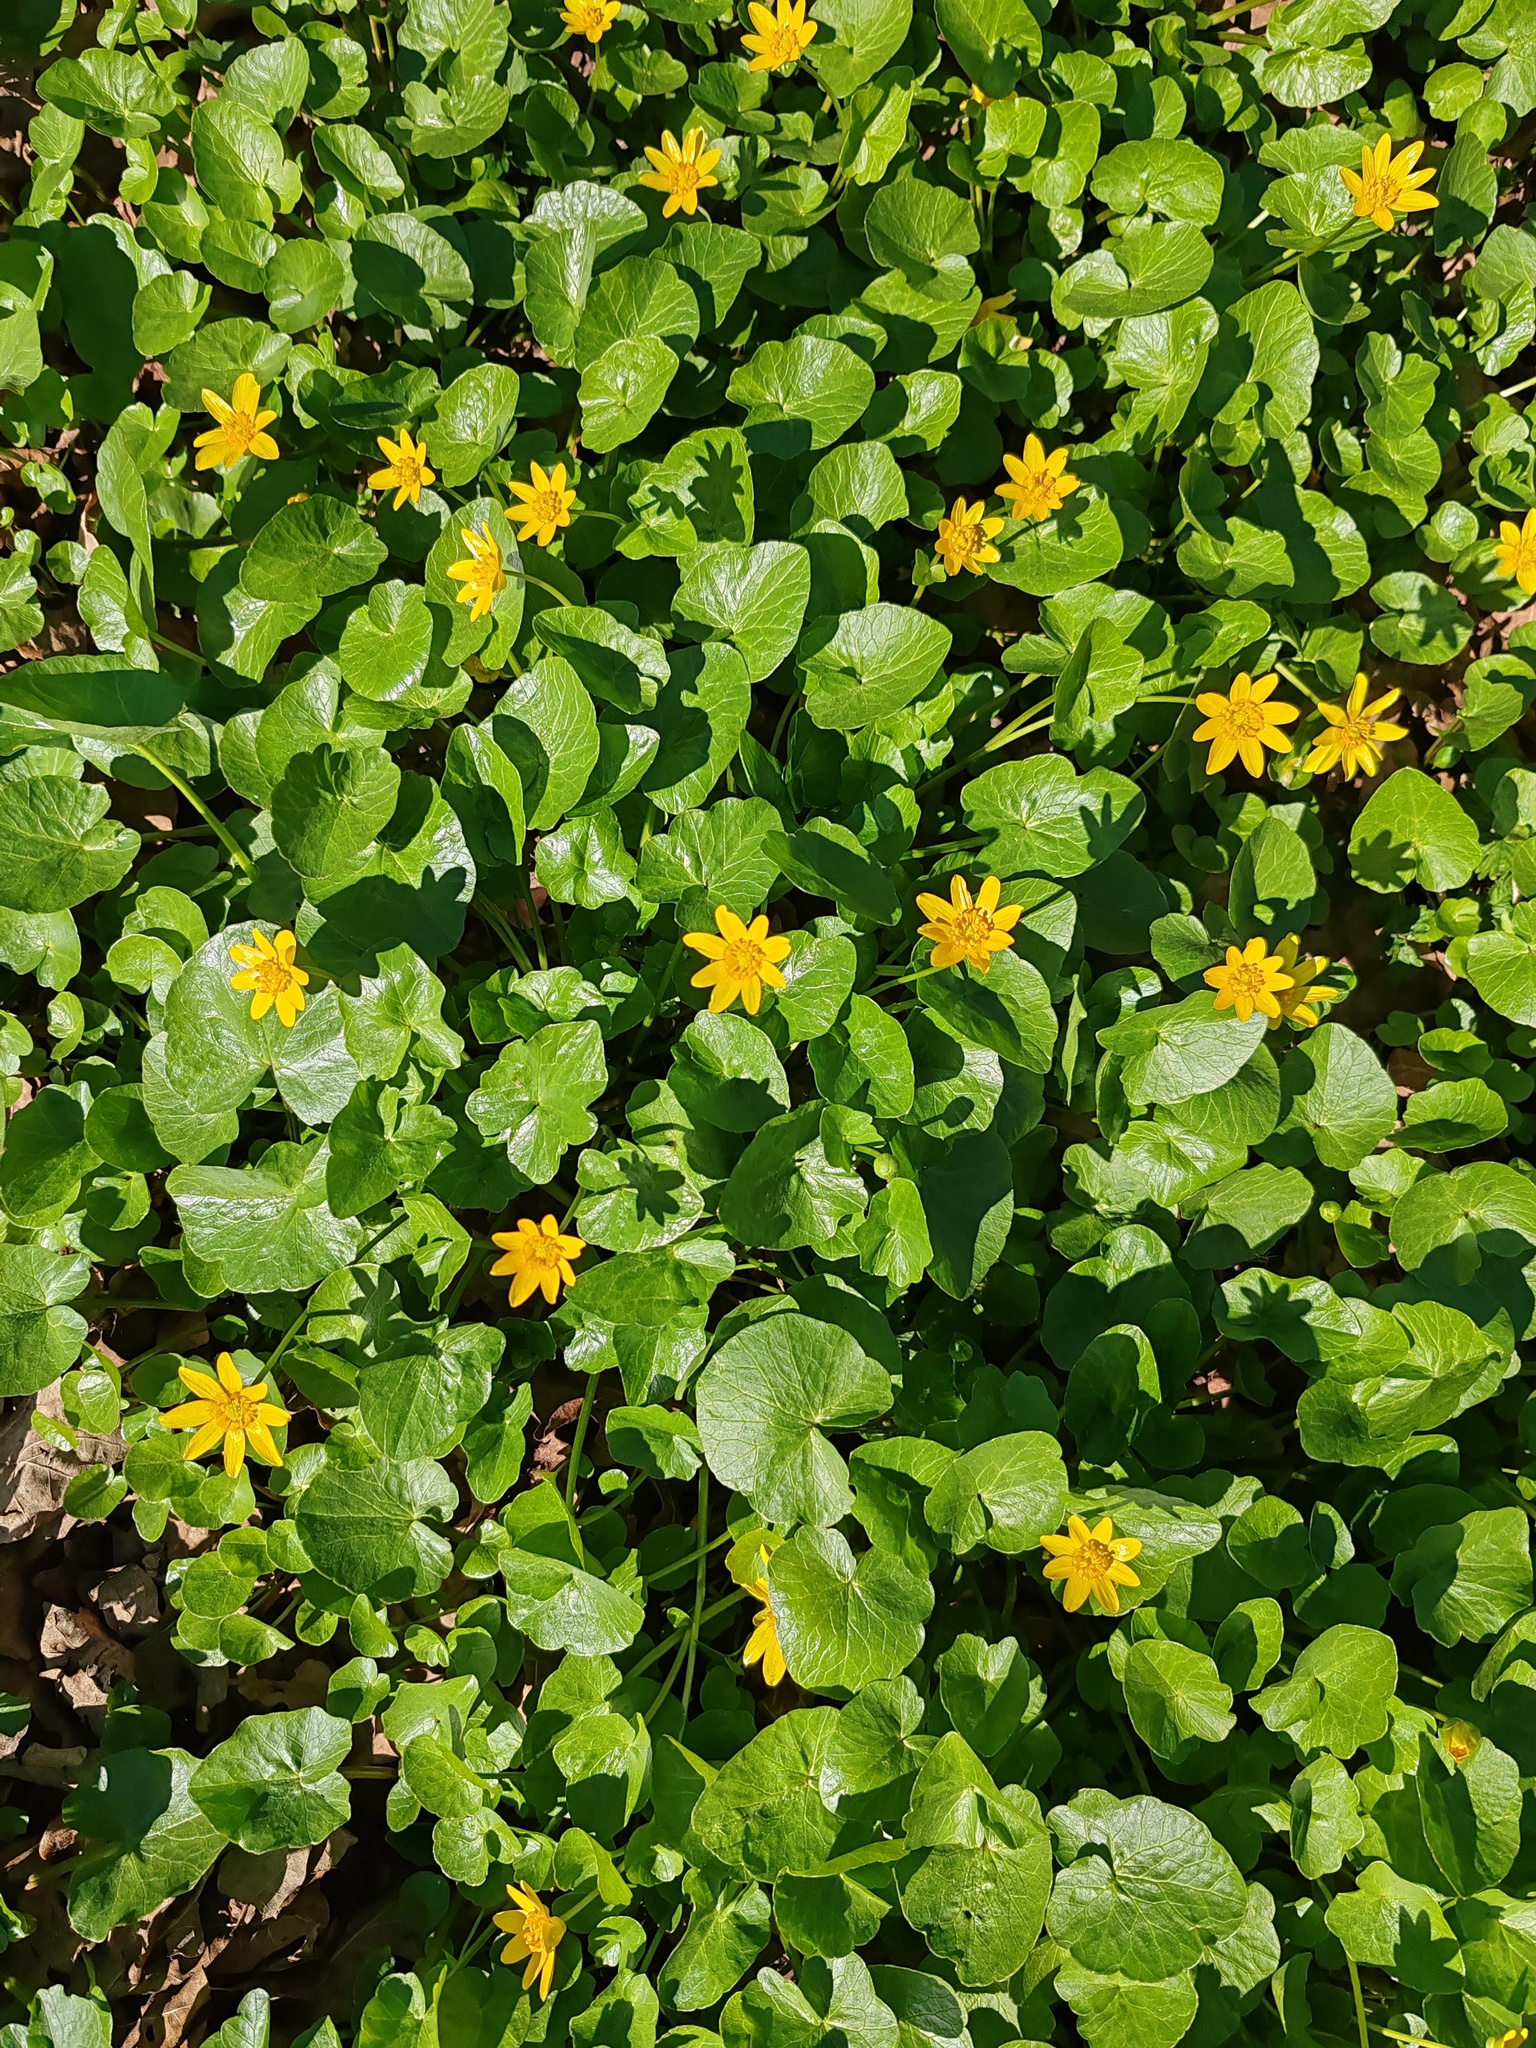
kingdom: Plantae
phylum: Tracheophyta
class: Magnoliopsida
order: Ranunculales
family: Ranunculaceae
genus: Ficaria
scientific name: Ficaria verna
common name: Lesser celandine
